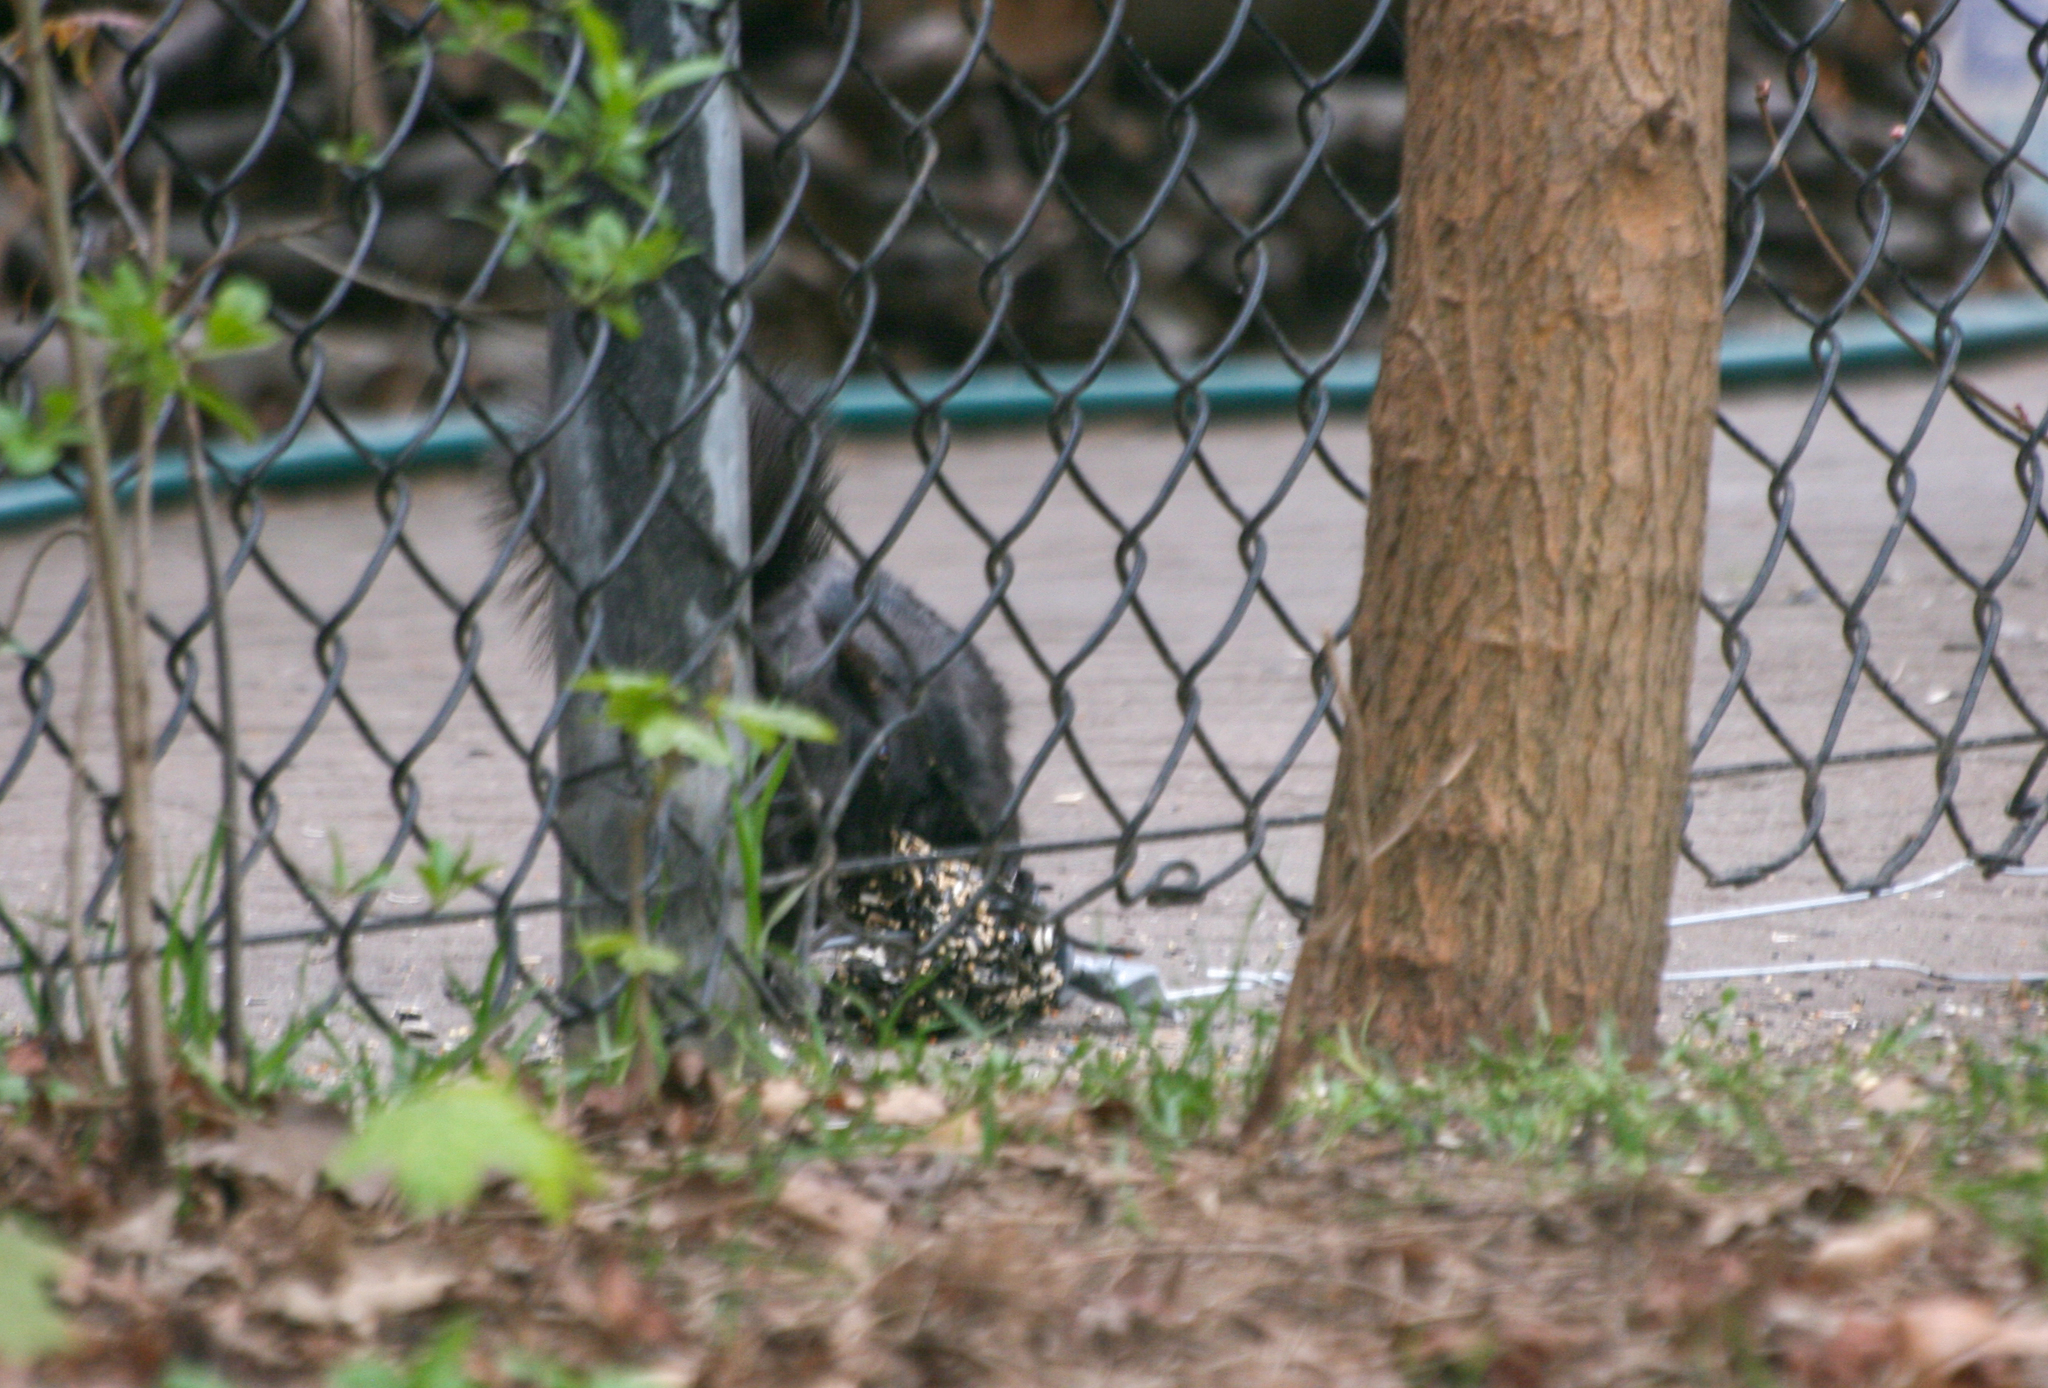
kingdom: Animalia
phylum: Chordata
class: Mammalia
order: Rodentia
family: Sciuridae
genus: Sciurus
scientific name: Sciurus carolinensis
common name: Eastern gray squirrel
